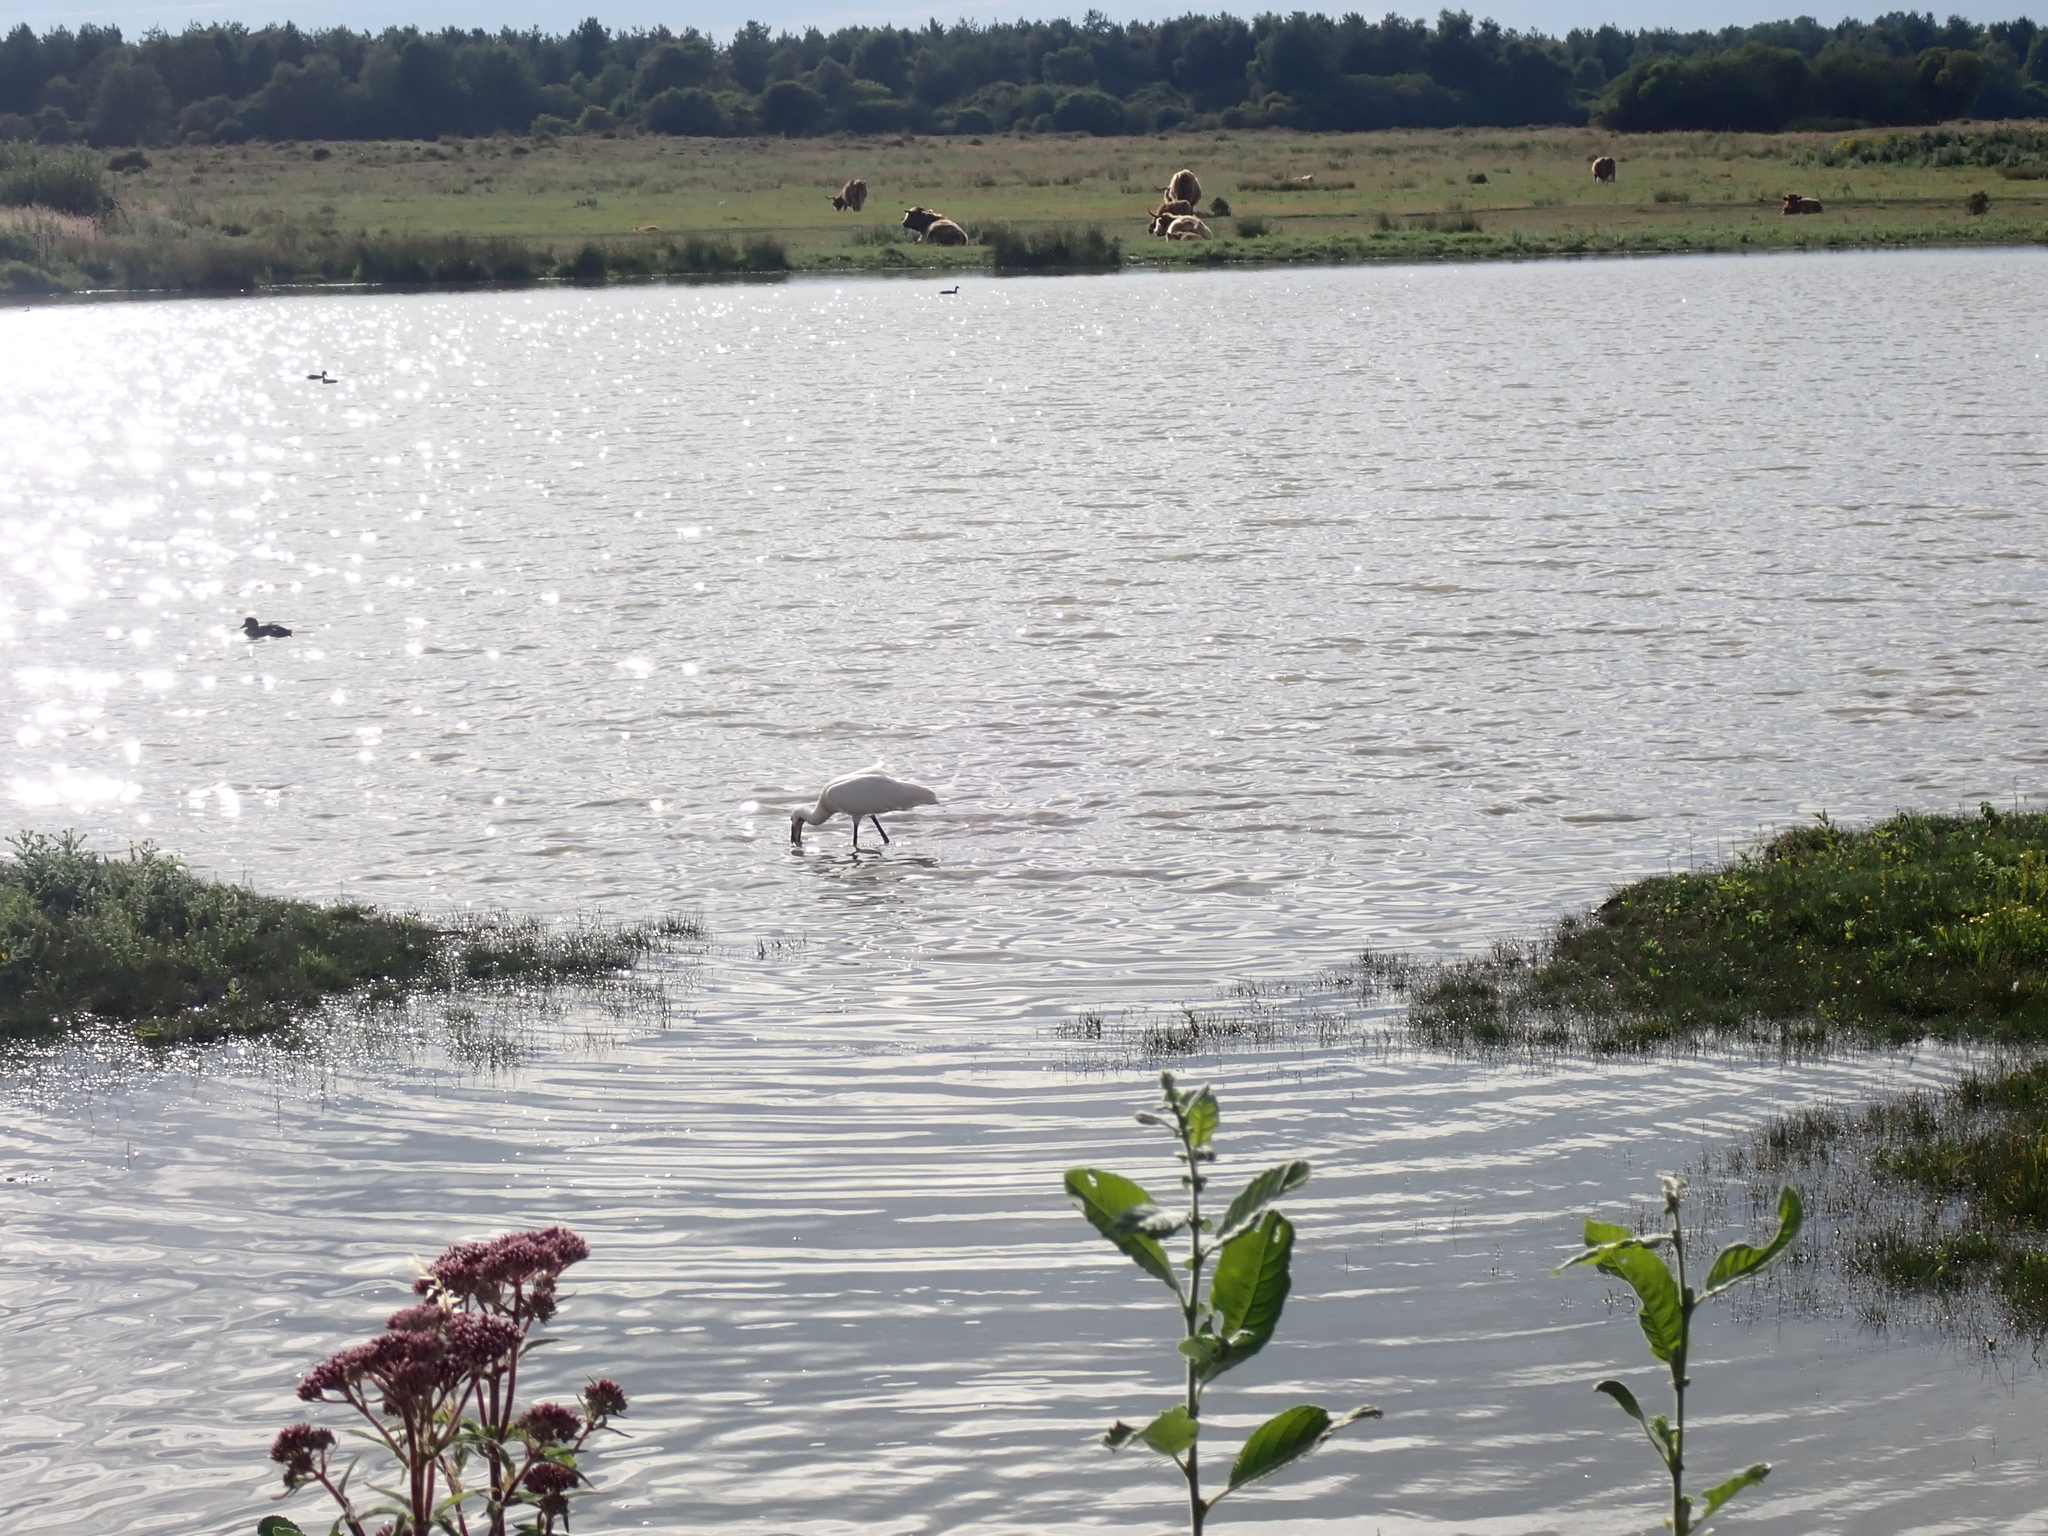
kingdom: Animalia
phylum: Chordata
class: Aves
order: Pelecaniformes
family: Threskiornithidae
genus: Platalea
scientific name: Platalea leucorodia
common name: Eurasian spoonbill
